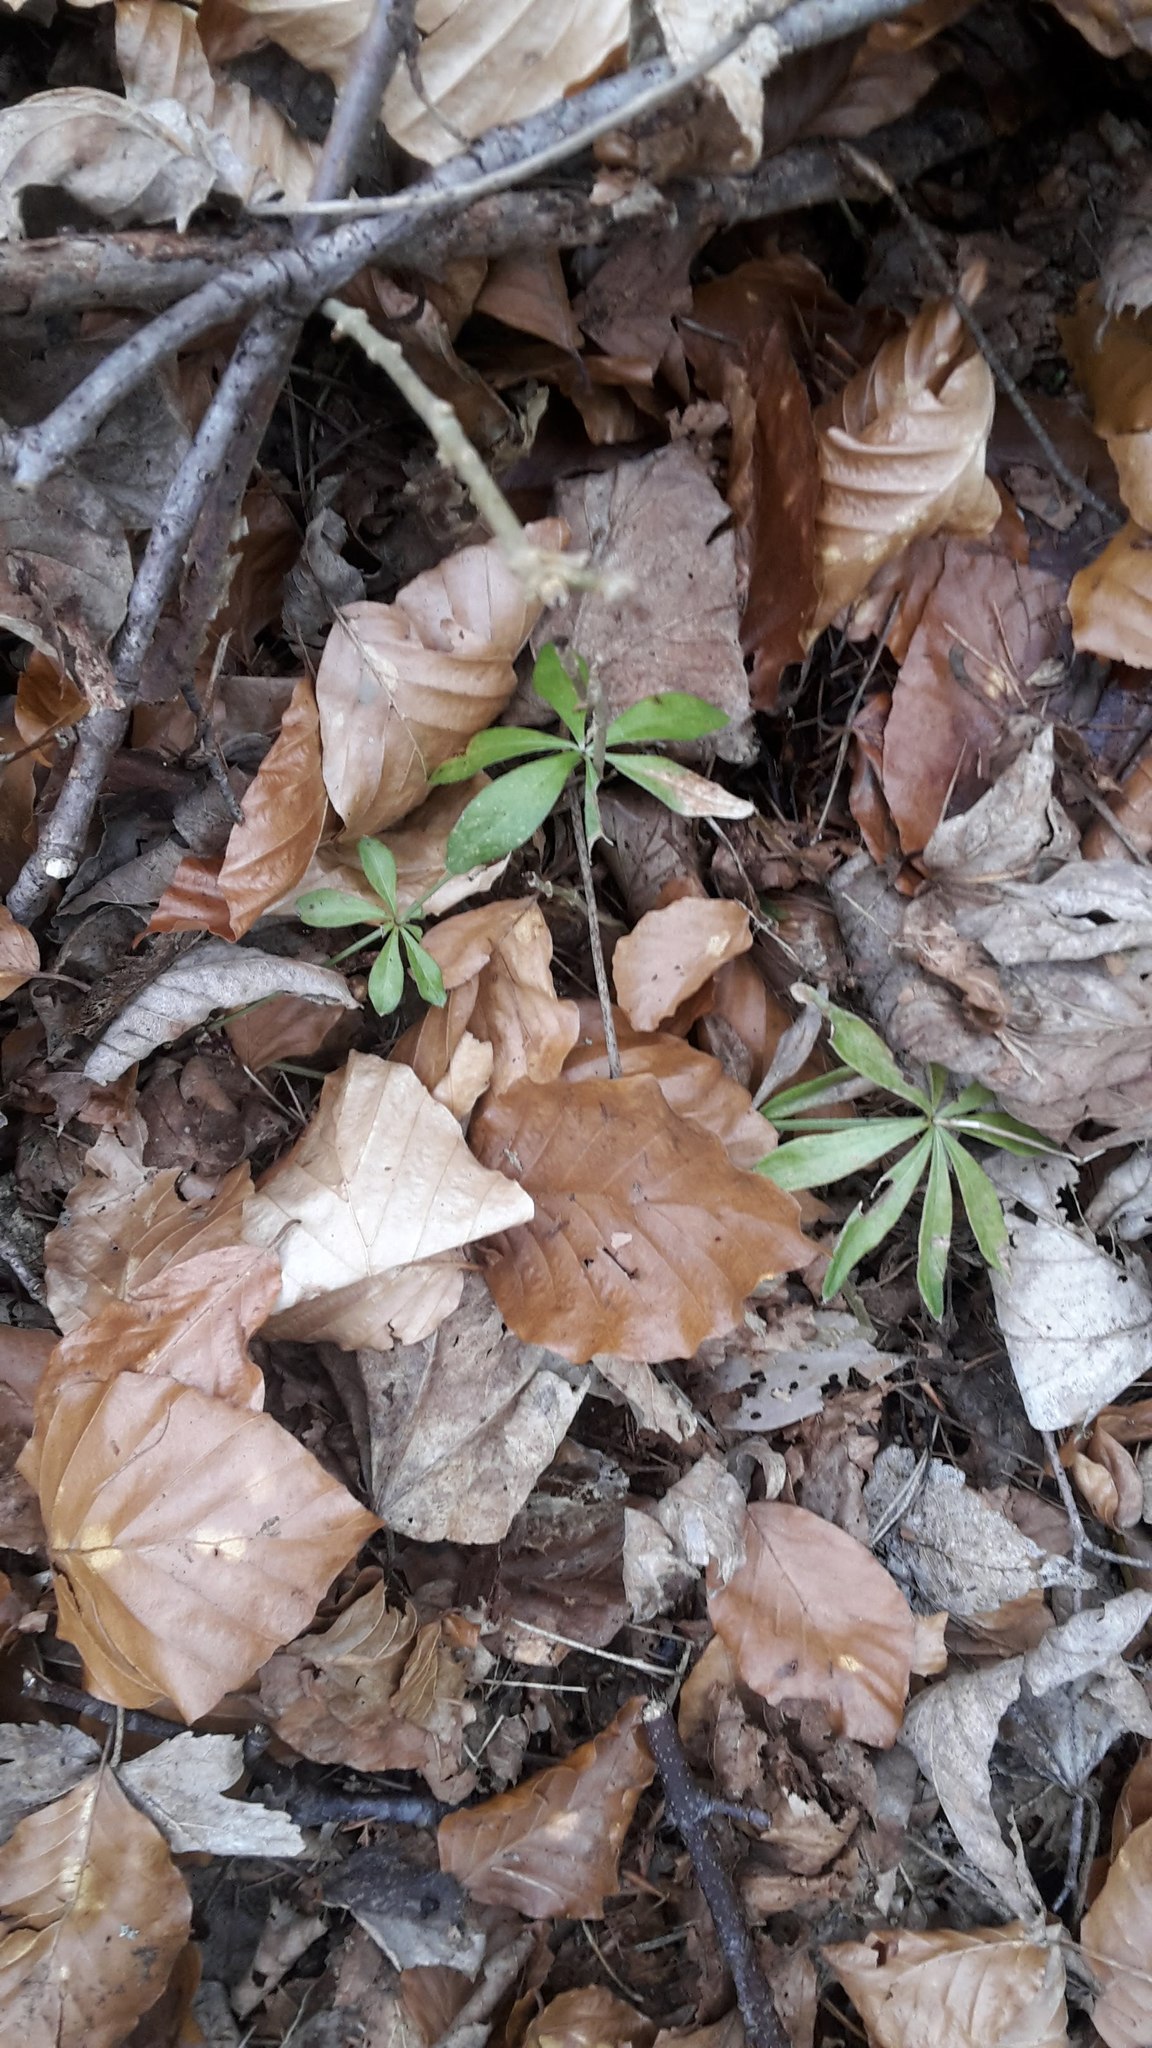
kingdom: Plantae
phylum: Tracheophyta
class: Magnoliopsida
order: Gentianales
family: Rubiaceae
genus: Galium
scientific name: Galium odoratum
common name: Sweet woodruff
